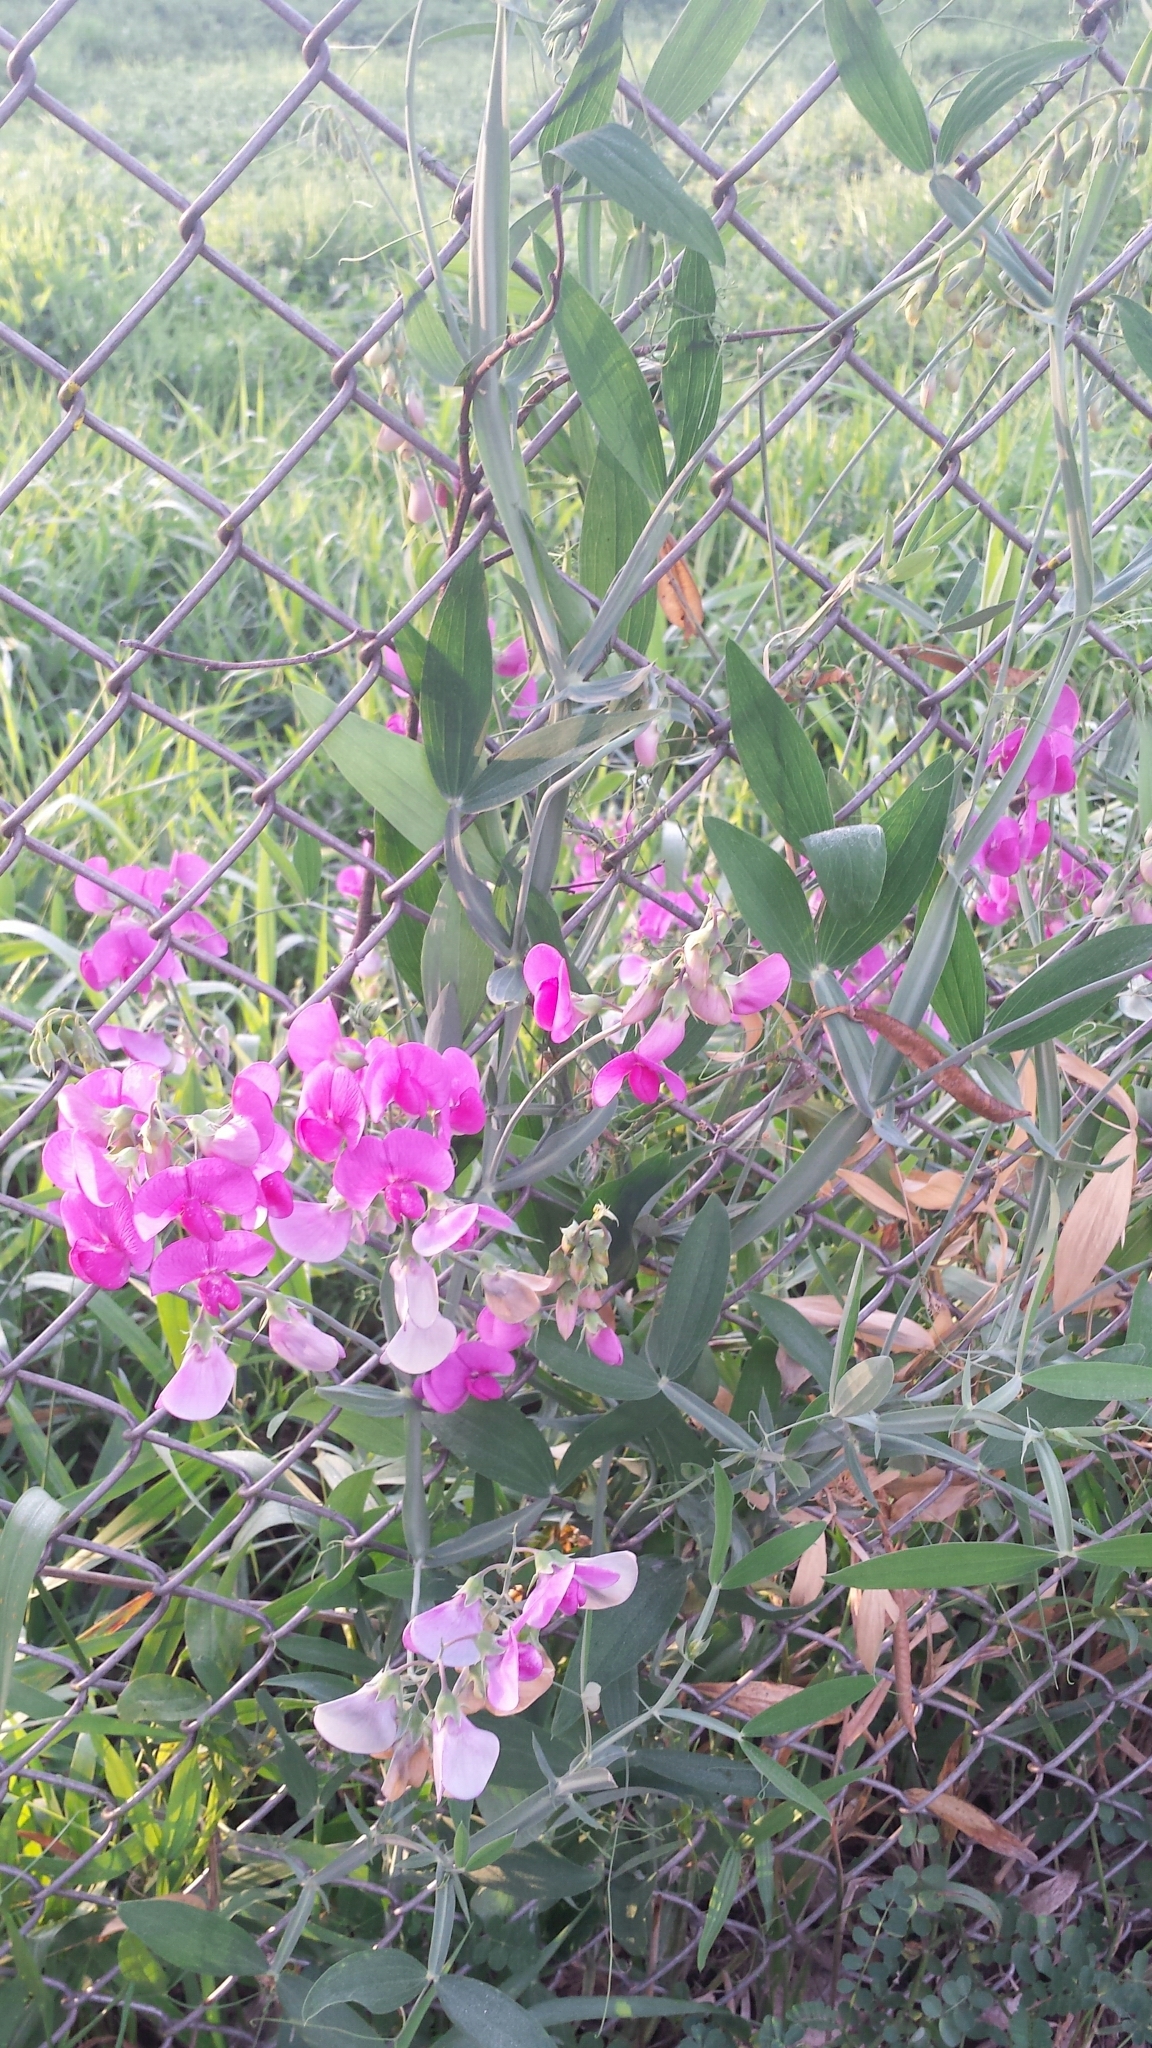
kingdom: Plantae
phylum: Tracheophyta
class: Magnoliopsida
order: Fabales
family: Fabaceae
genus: Lathyrus
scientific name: Lathyrus latifolius
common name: Perennial pea
